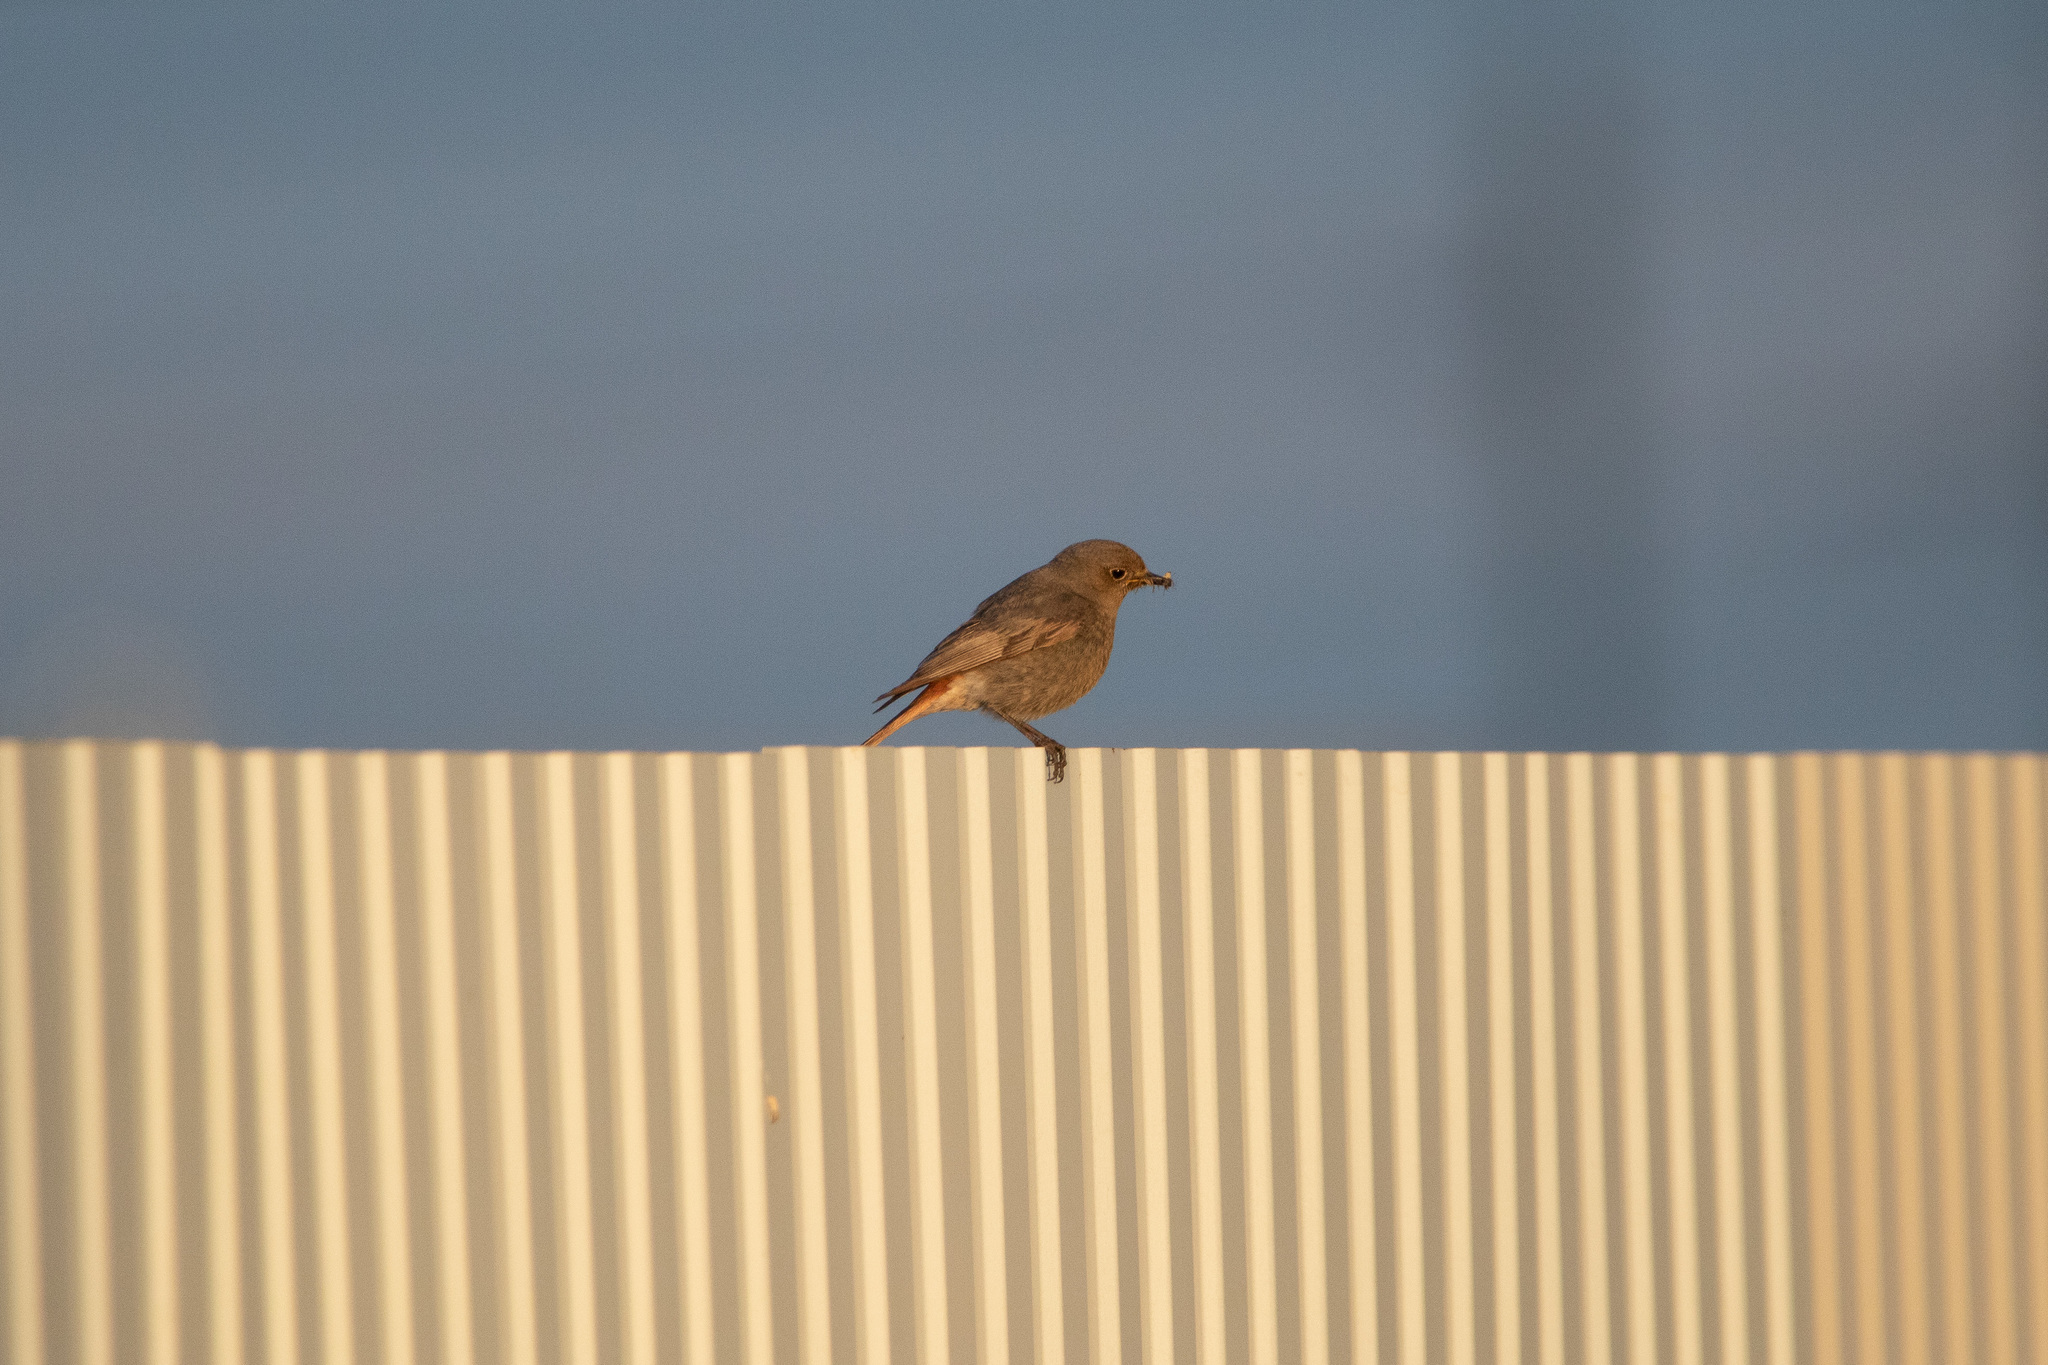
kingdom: Animalia
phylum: Chordata
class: Aves
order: Passeriformes
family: Muscicapidae
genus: Phoenicurus
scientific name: Phoenicurus ochruros
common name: Black redstart
